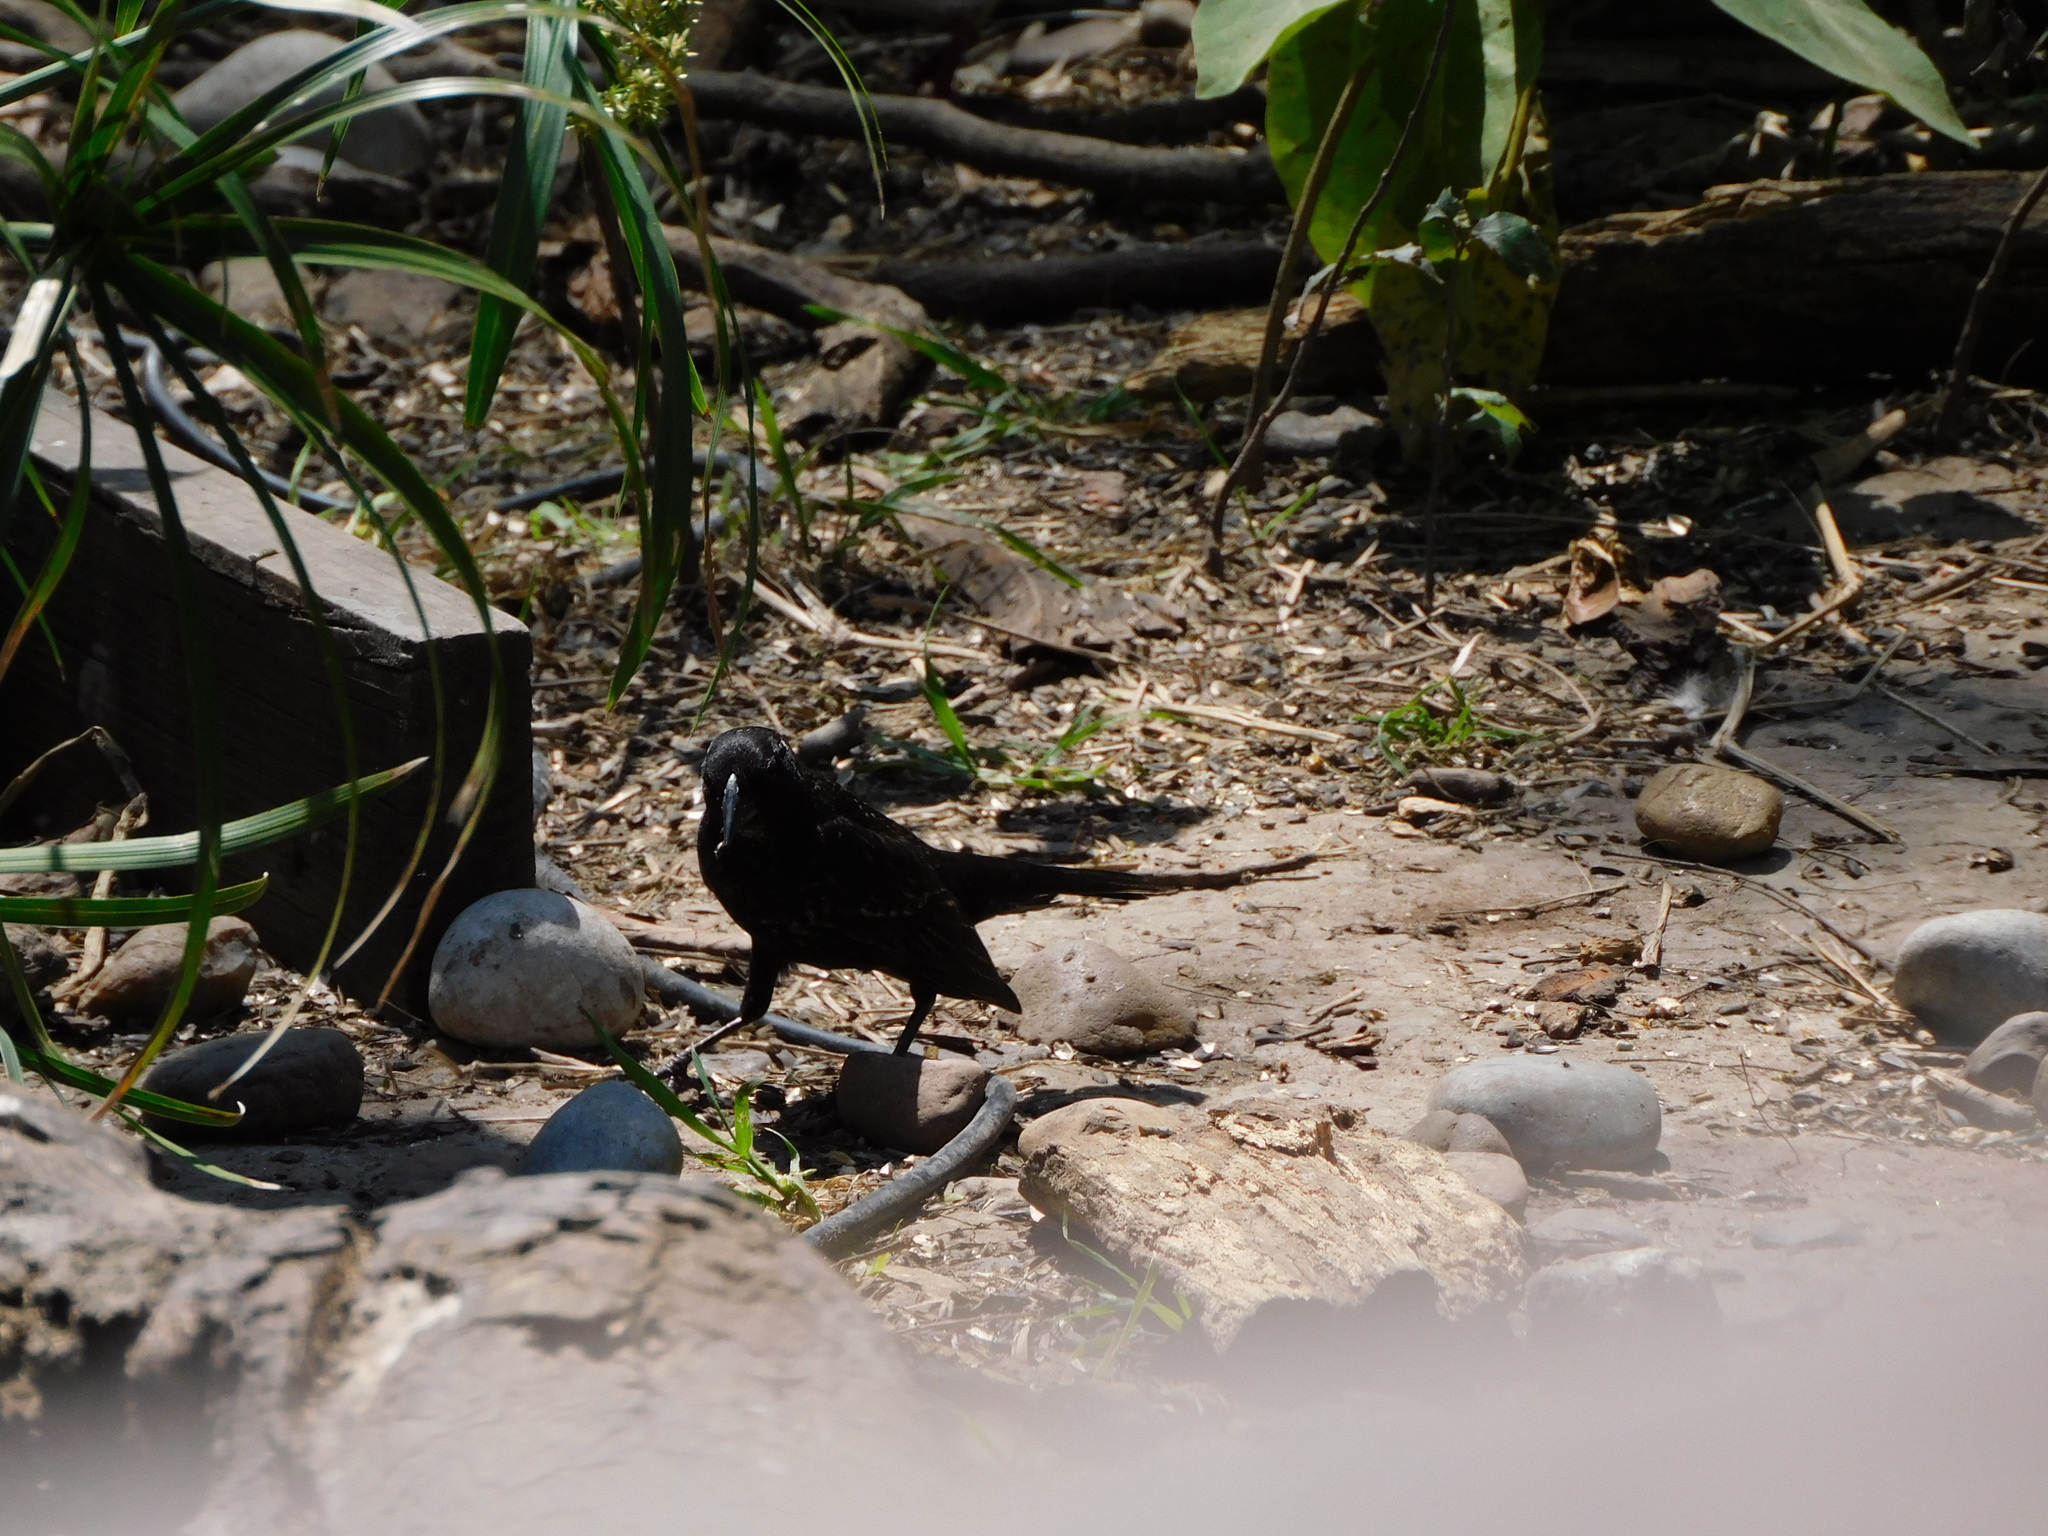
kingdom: Animalia
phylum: Chordata
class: Aves
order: Passeriformes
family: Icteridae
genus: Agelaius
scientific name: Agelaius phoeniceus
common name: Red-winged blackbird
